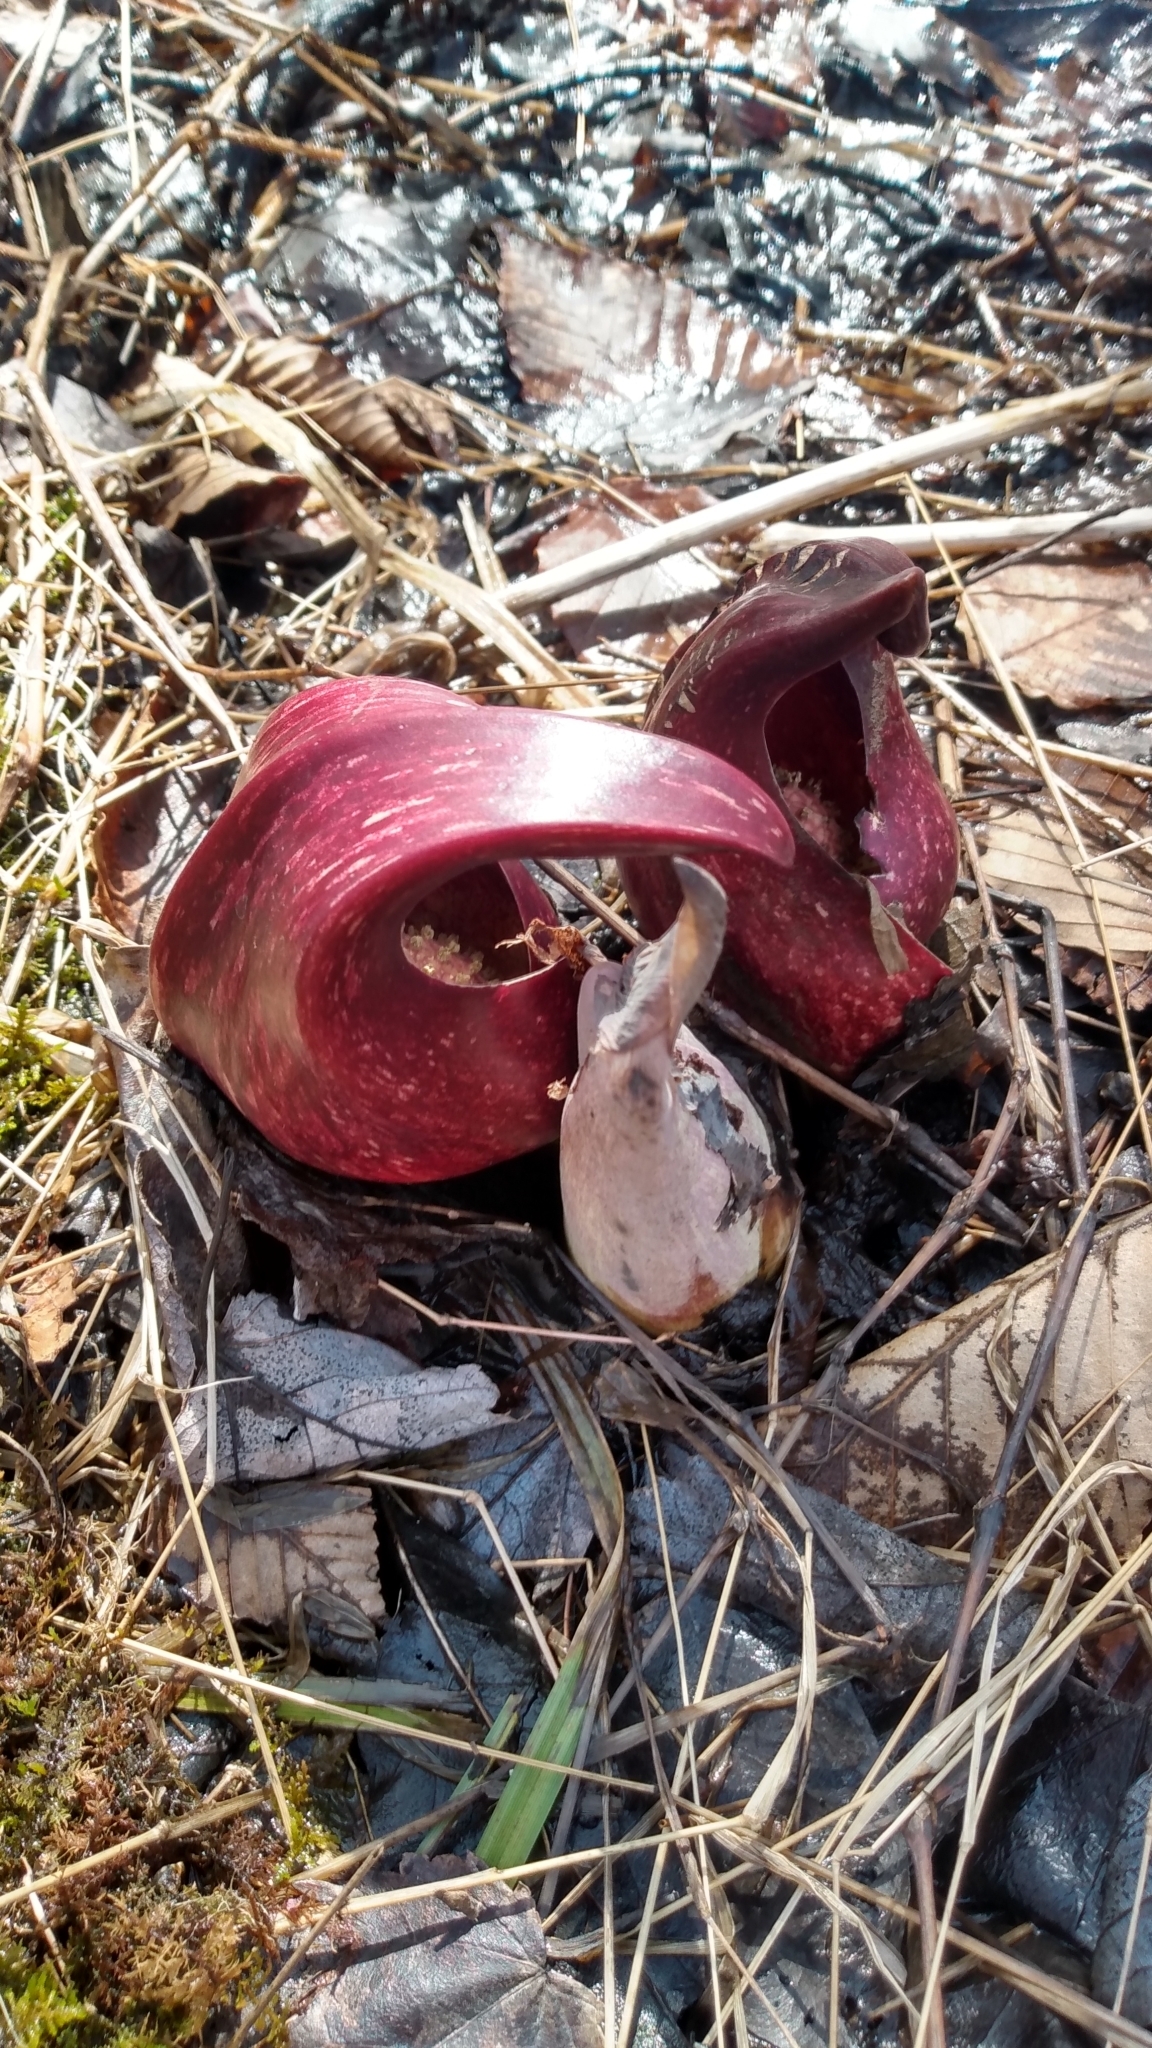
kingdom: Plantae
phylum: Tracheophyta
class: Liliopsida
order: Alismatales
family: Araceae
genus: Symplocarpus
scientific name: Symplocarpus foetidus
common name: Eastern skunk cabbage
